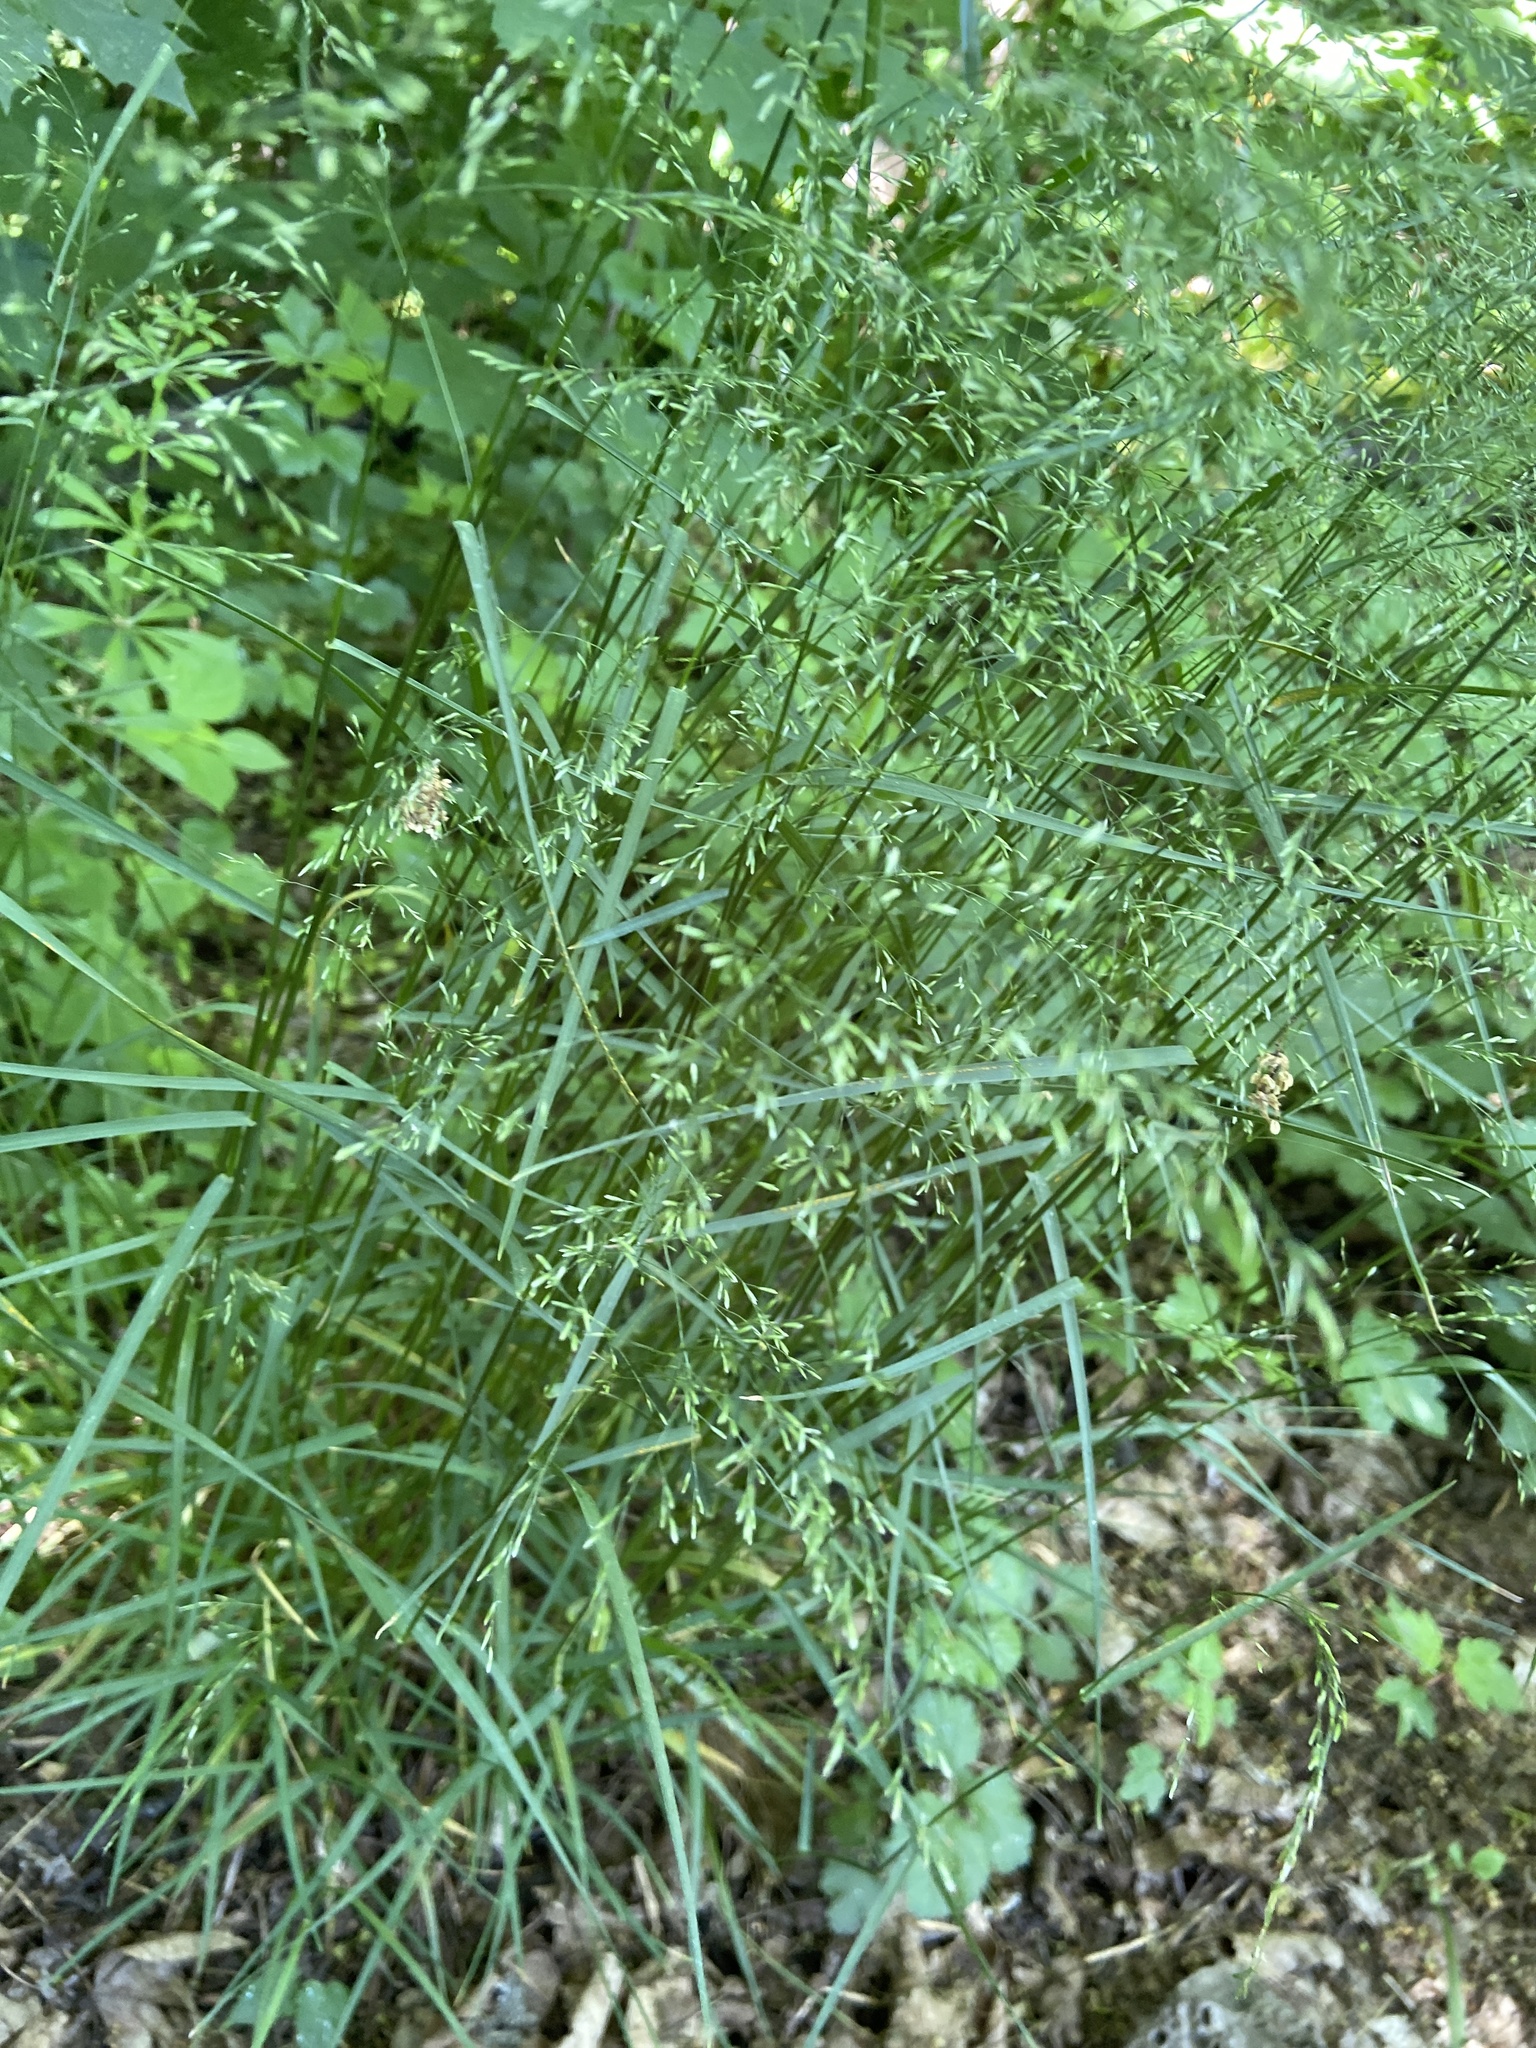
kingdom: Plantae
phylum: Tracheophyta
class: Liliopsida
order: Poales
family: Poaceae
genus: Poa
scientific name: Poa nemoralis
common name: Wood bluegrass
